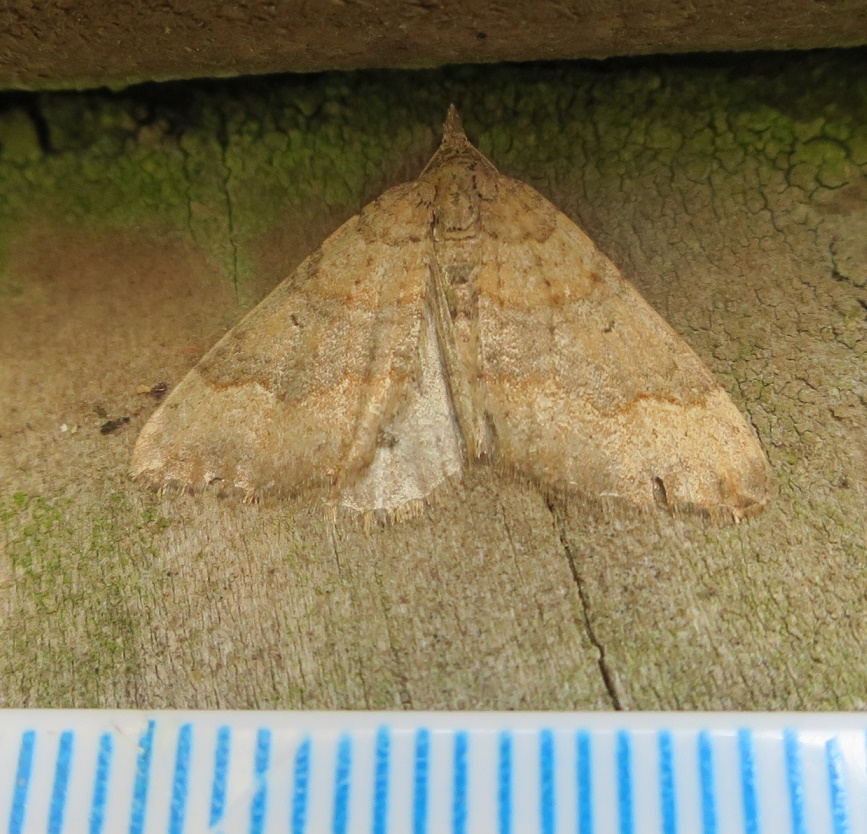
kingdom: Animalia
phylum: Arthropoda
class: Insecta
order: Lepidoptera
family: Geometridae
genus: Epyaxa
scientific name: Epyaxa rosearia
